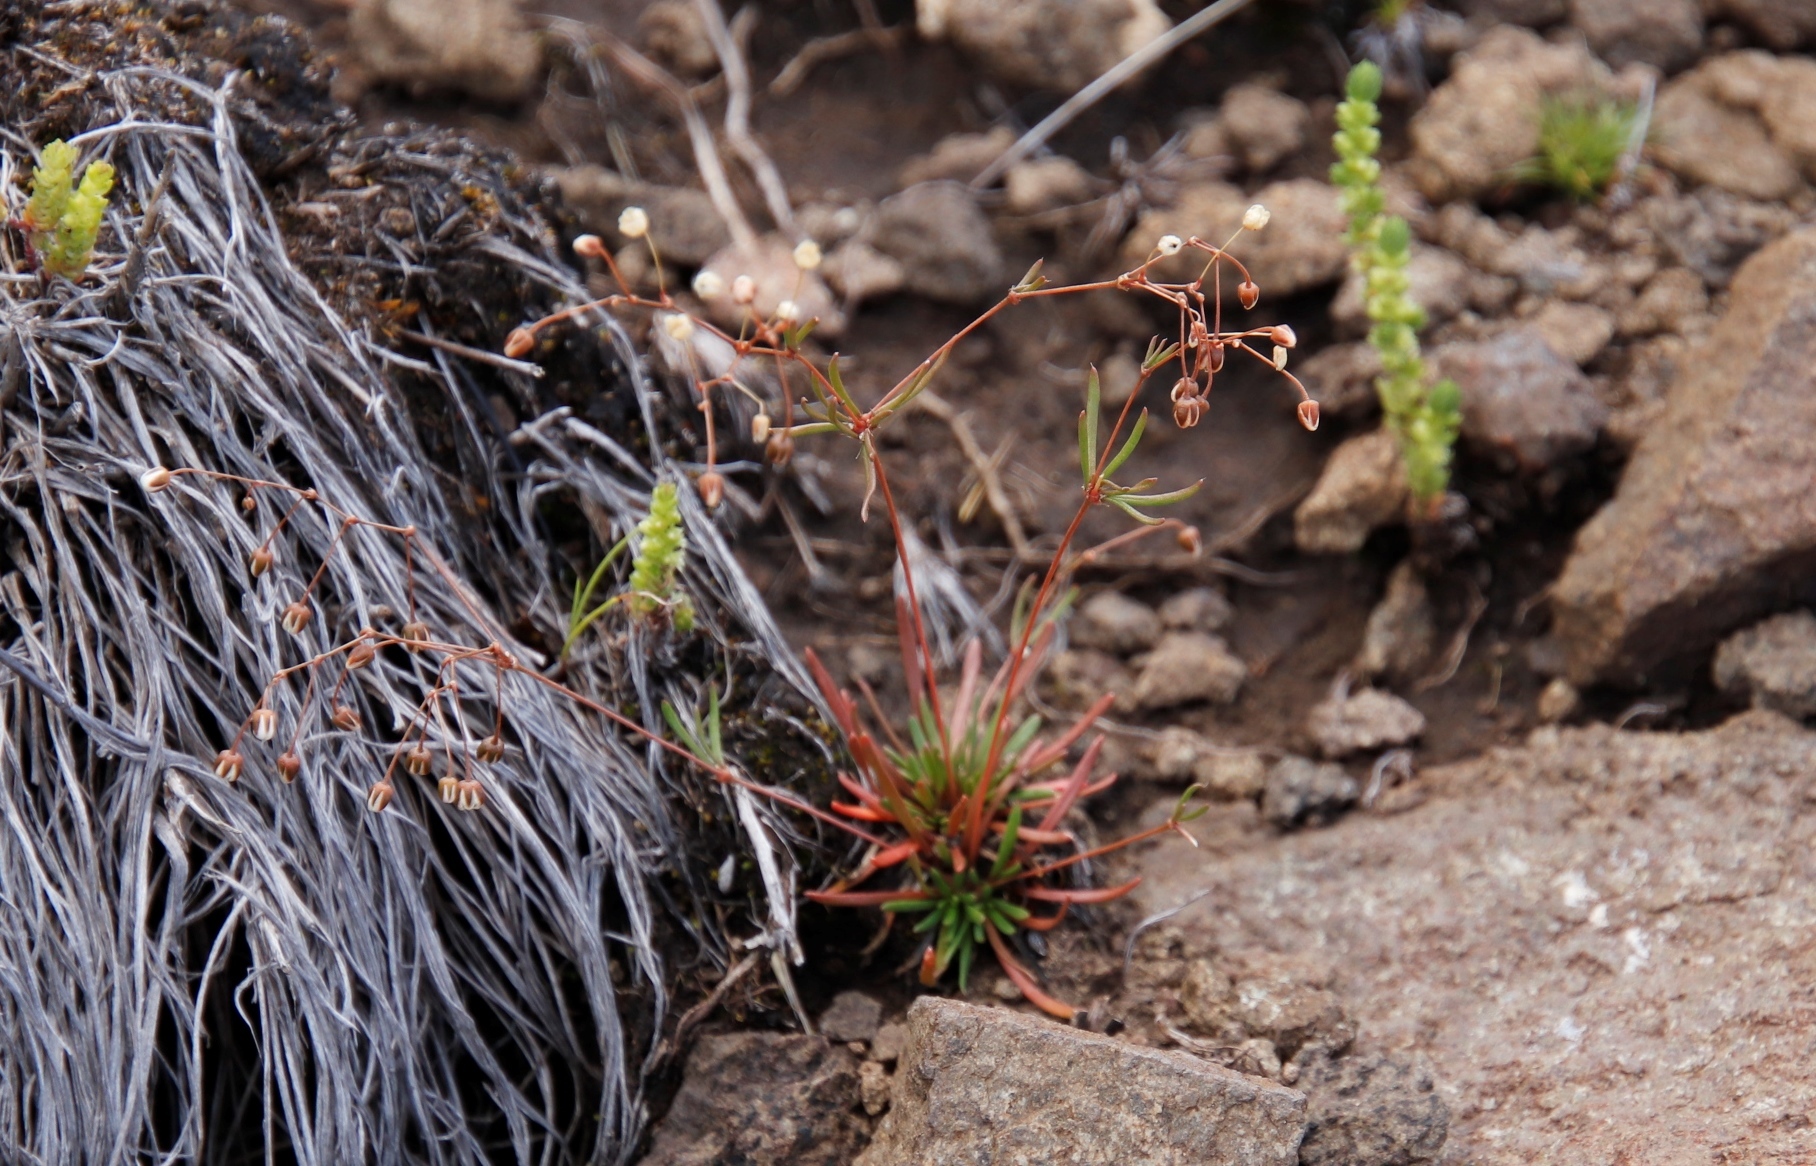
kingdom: Plantae
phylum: Tracheophyta
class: Magnoliopsida
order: Caryophyllales
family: Molluginaceae
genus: Pharnaceum
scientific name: Pharnaceum alpinum
